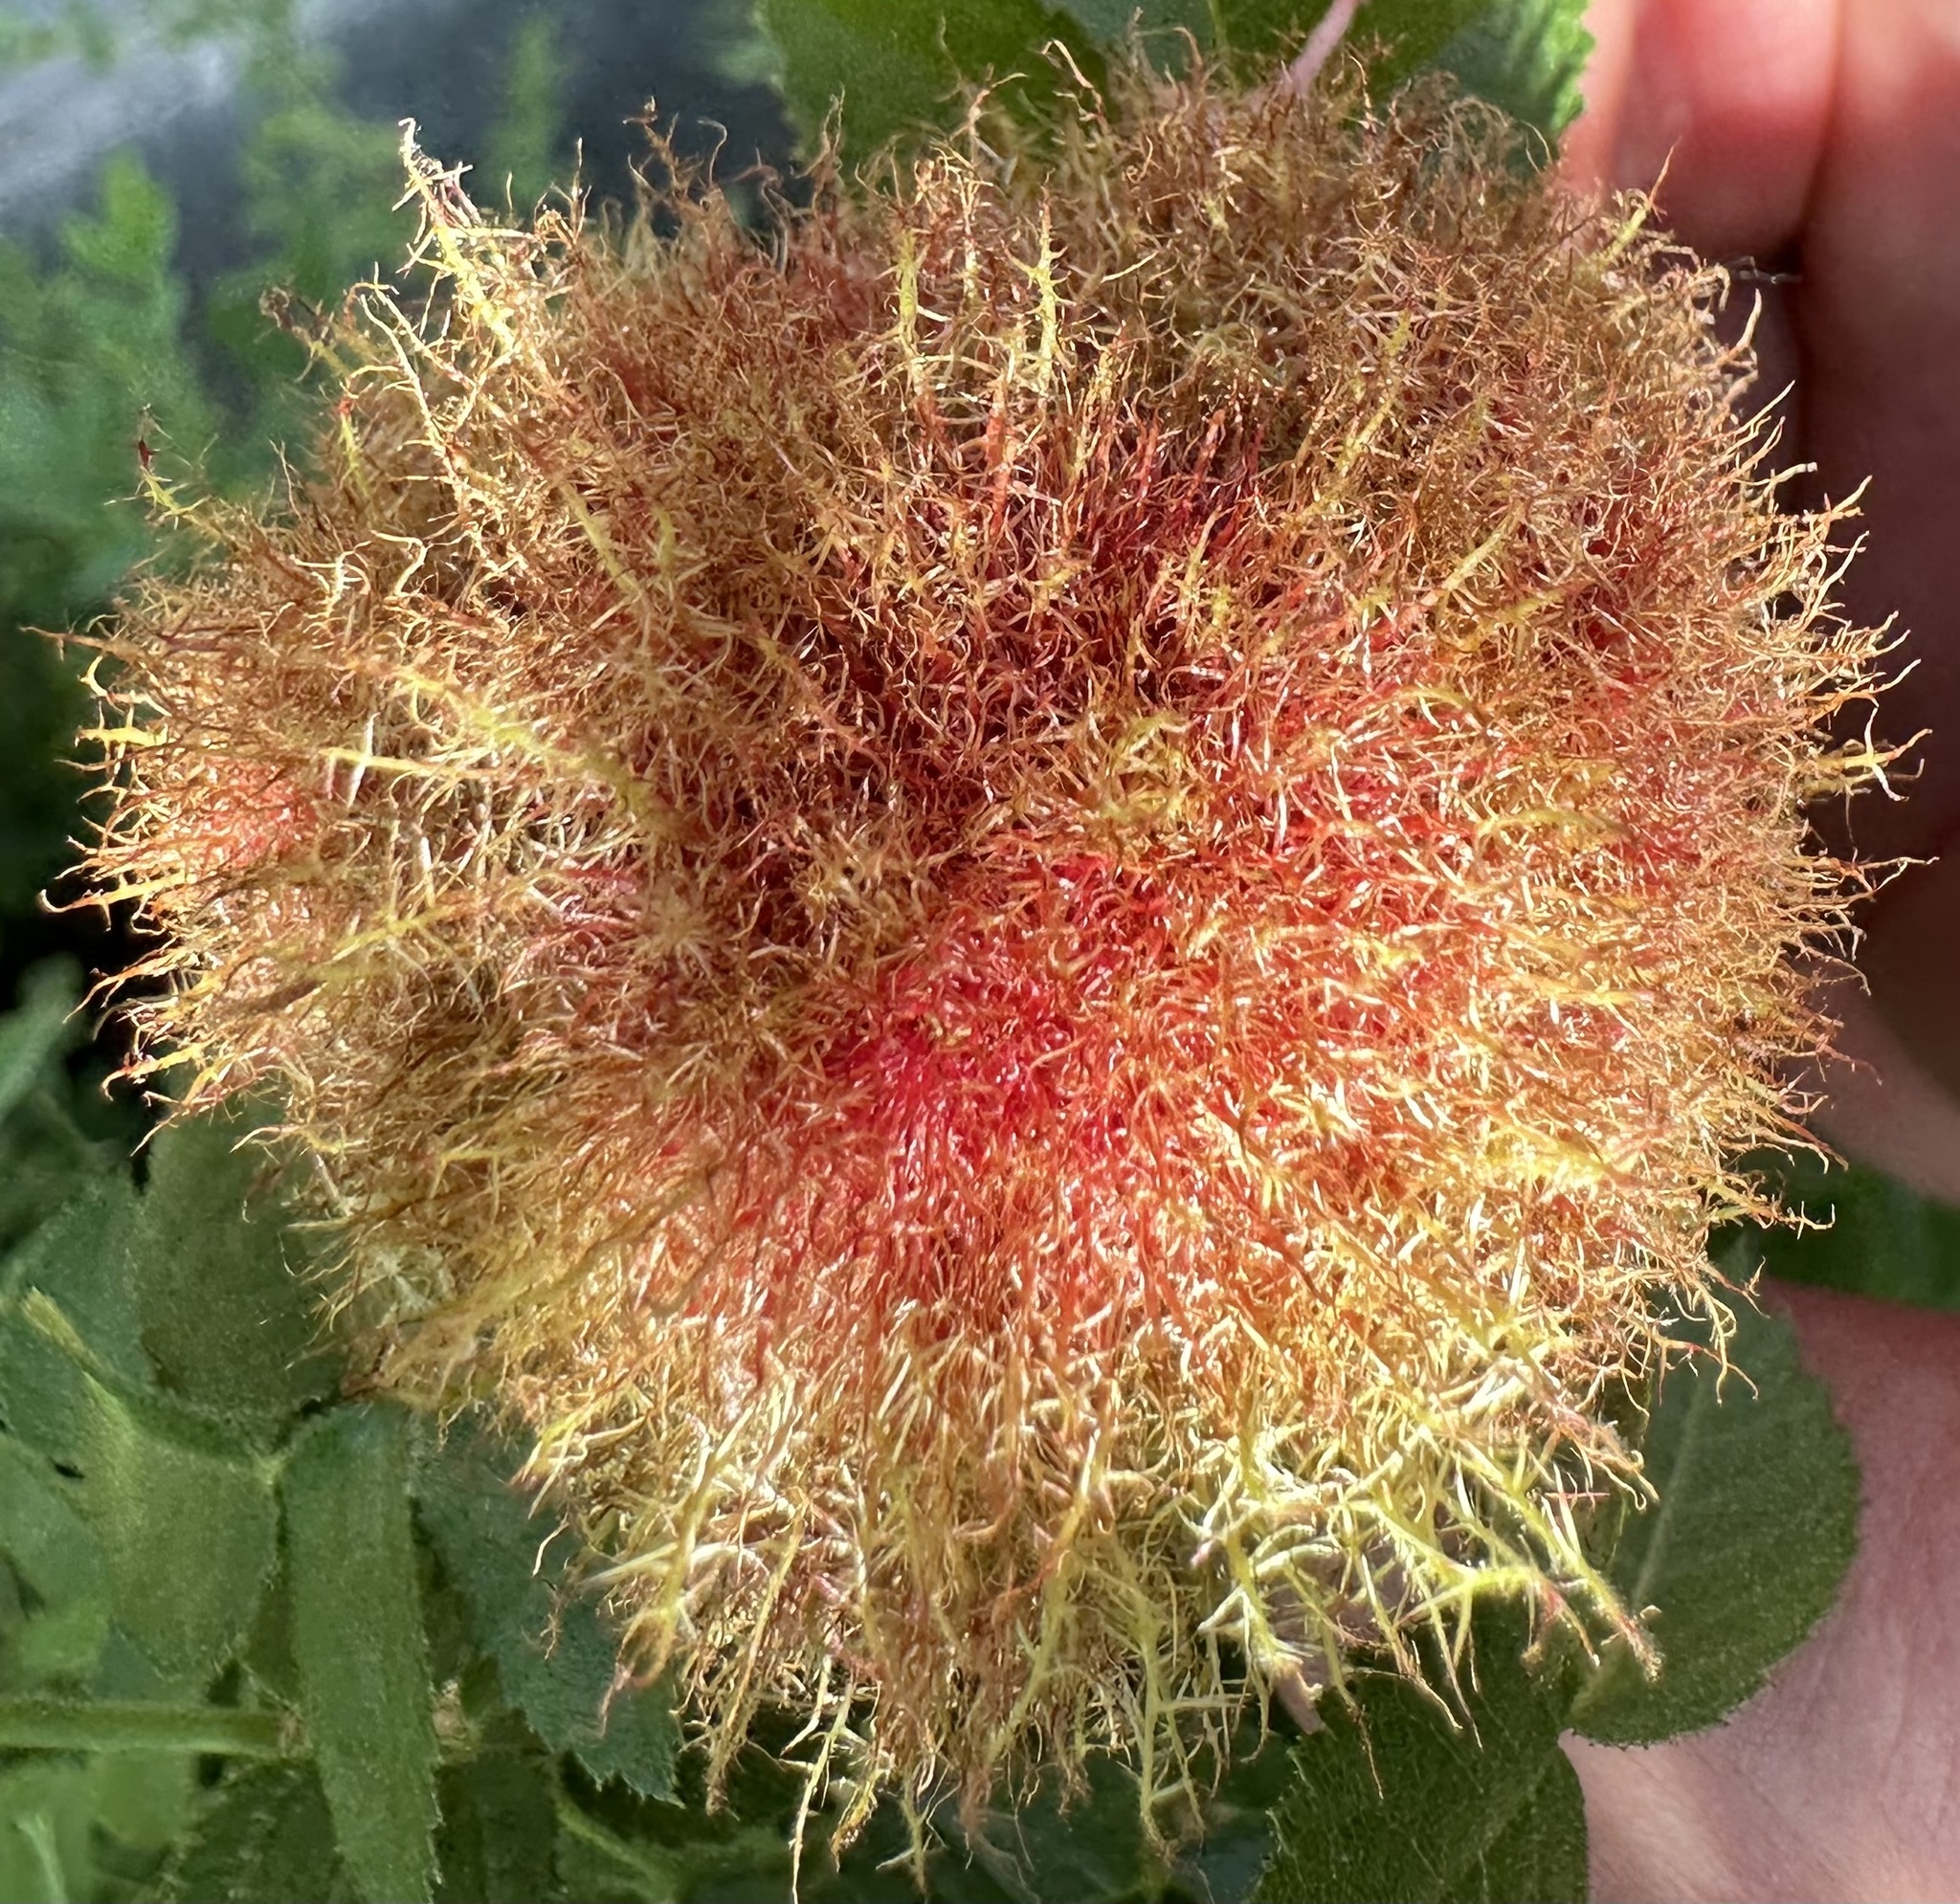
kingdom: Animalia
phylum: Arthropoda
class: Insecta
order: Hymenoptera
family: Cynipidae
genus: Diplolepis
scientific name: Diplolepis rosae
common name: Bedeguar gall
